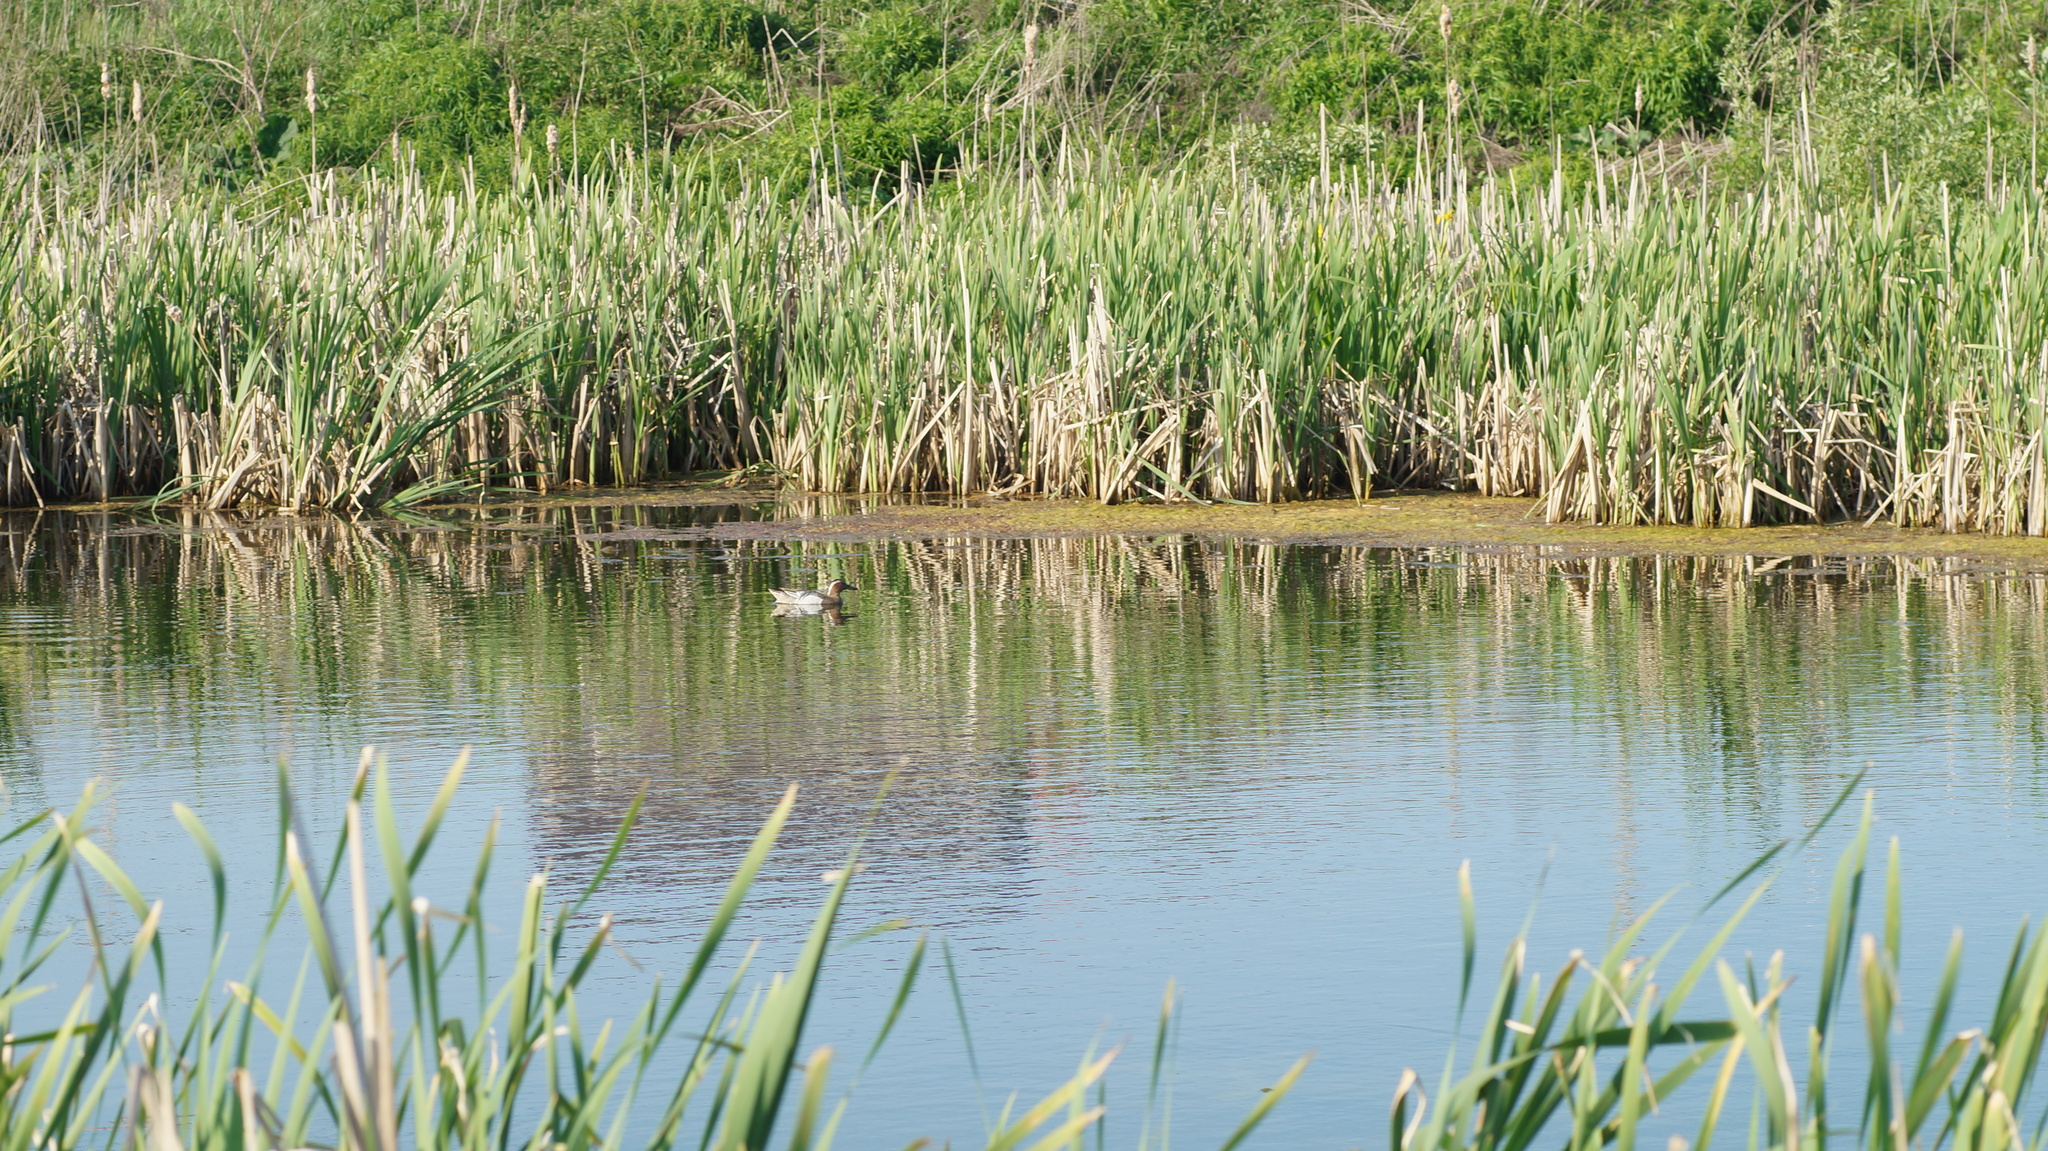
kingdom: Animalia
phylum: Chordata
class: Aves
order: Anseriformes
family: Anatidae
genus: Spatula
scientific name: Spatula querquedula
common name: Garganey
